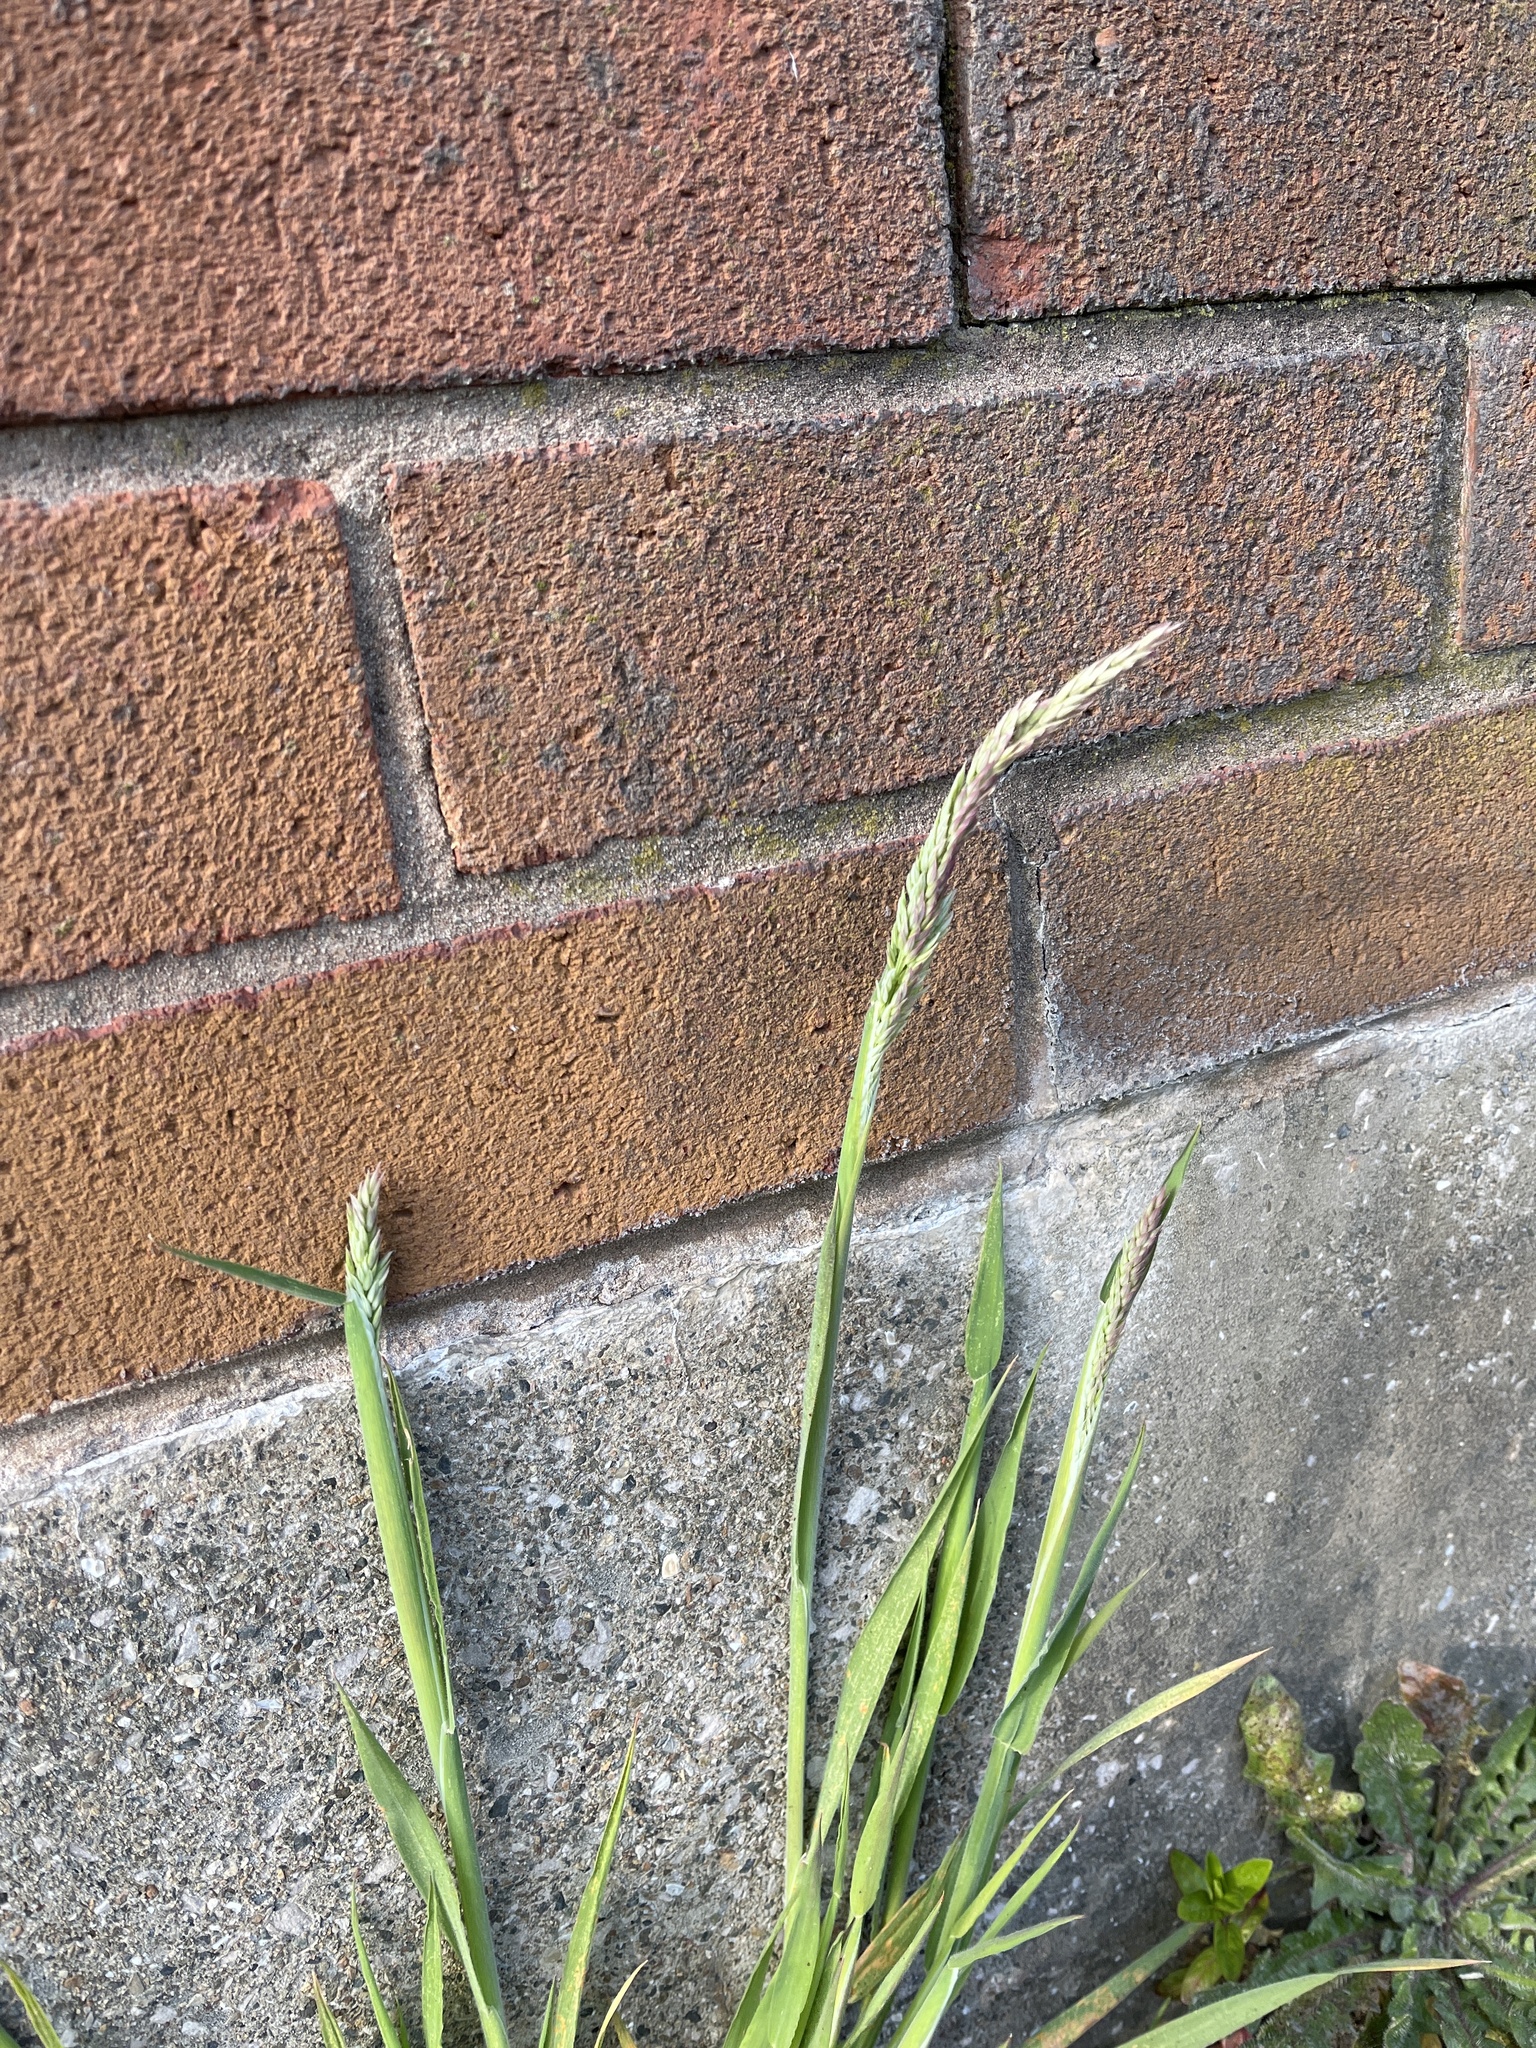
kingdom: Plantae
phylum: Tracheophyta
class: Liliopsida
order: Poales
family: Poaceae
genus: Holcus
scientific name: Holcus lanatus
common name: Yorkshire-fog
